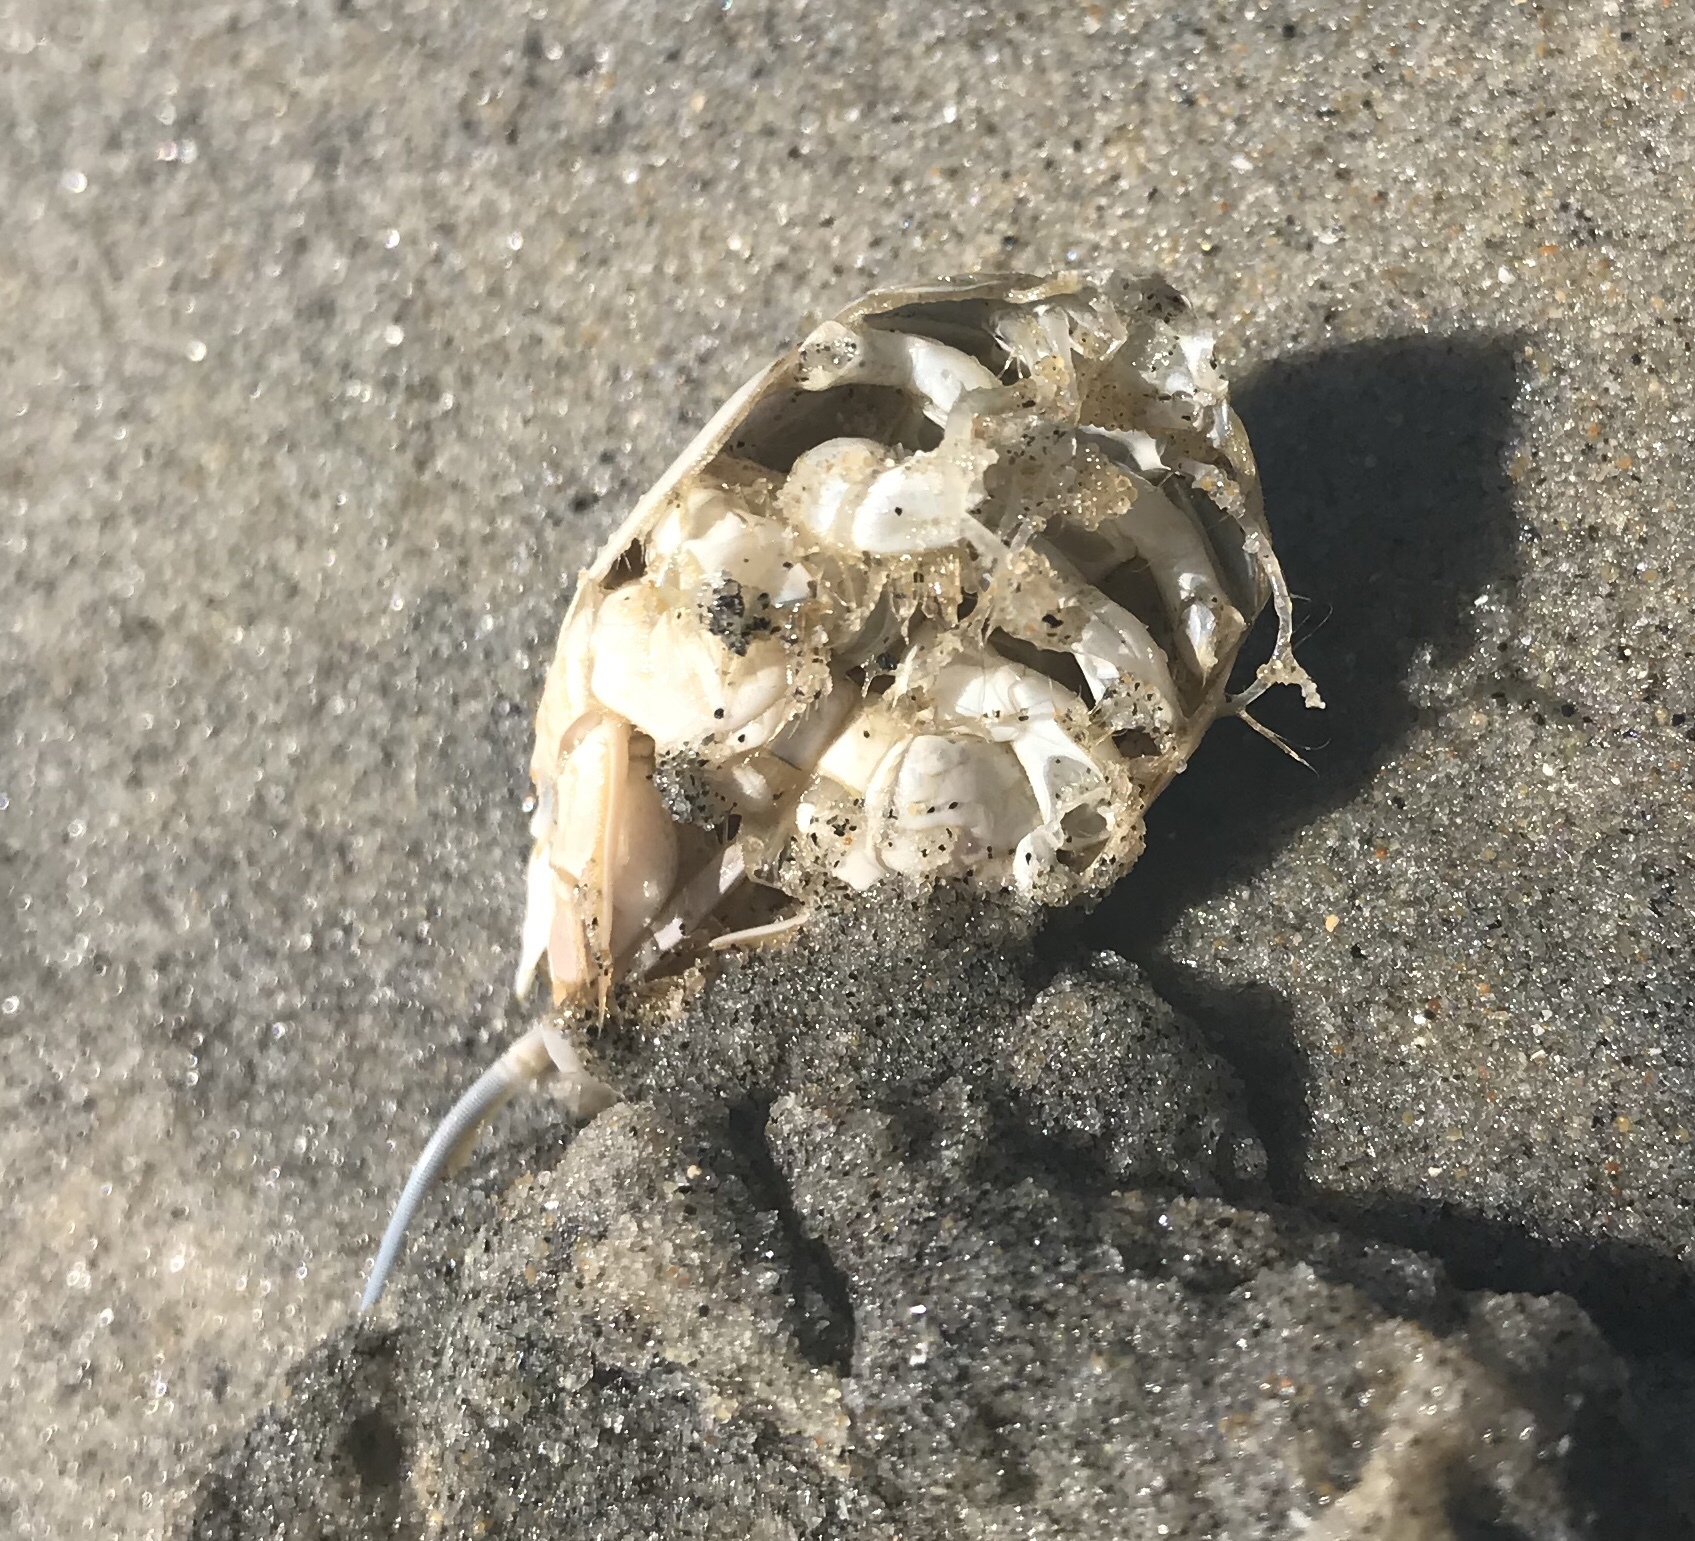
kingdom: Animalia
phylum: Arthropoda
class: Malacostraca
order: Decapoda
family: Hippidae
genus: Emerita
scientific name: Emerita analoga
